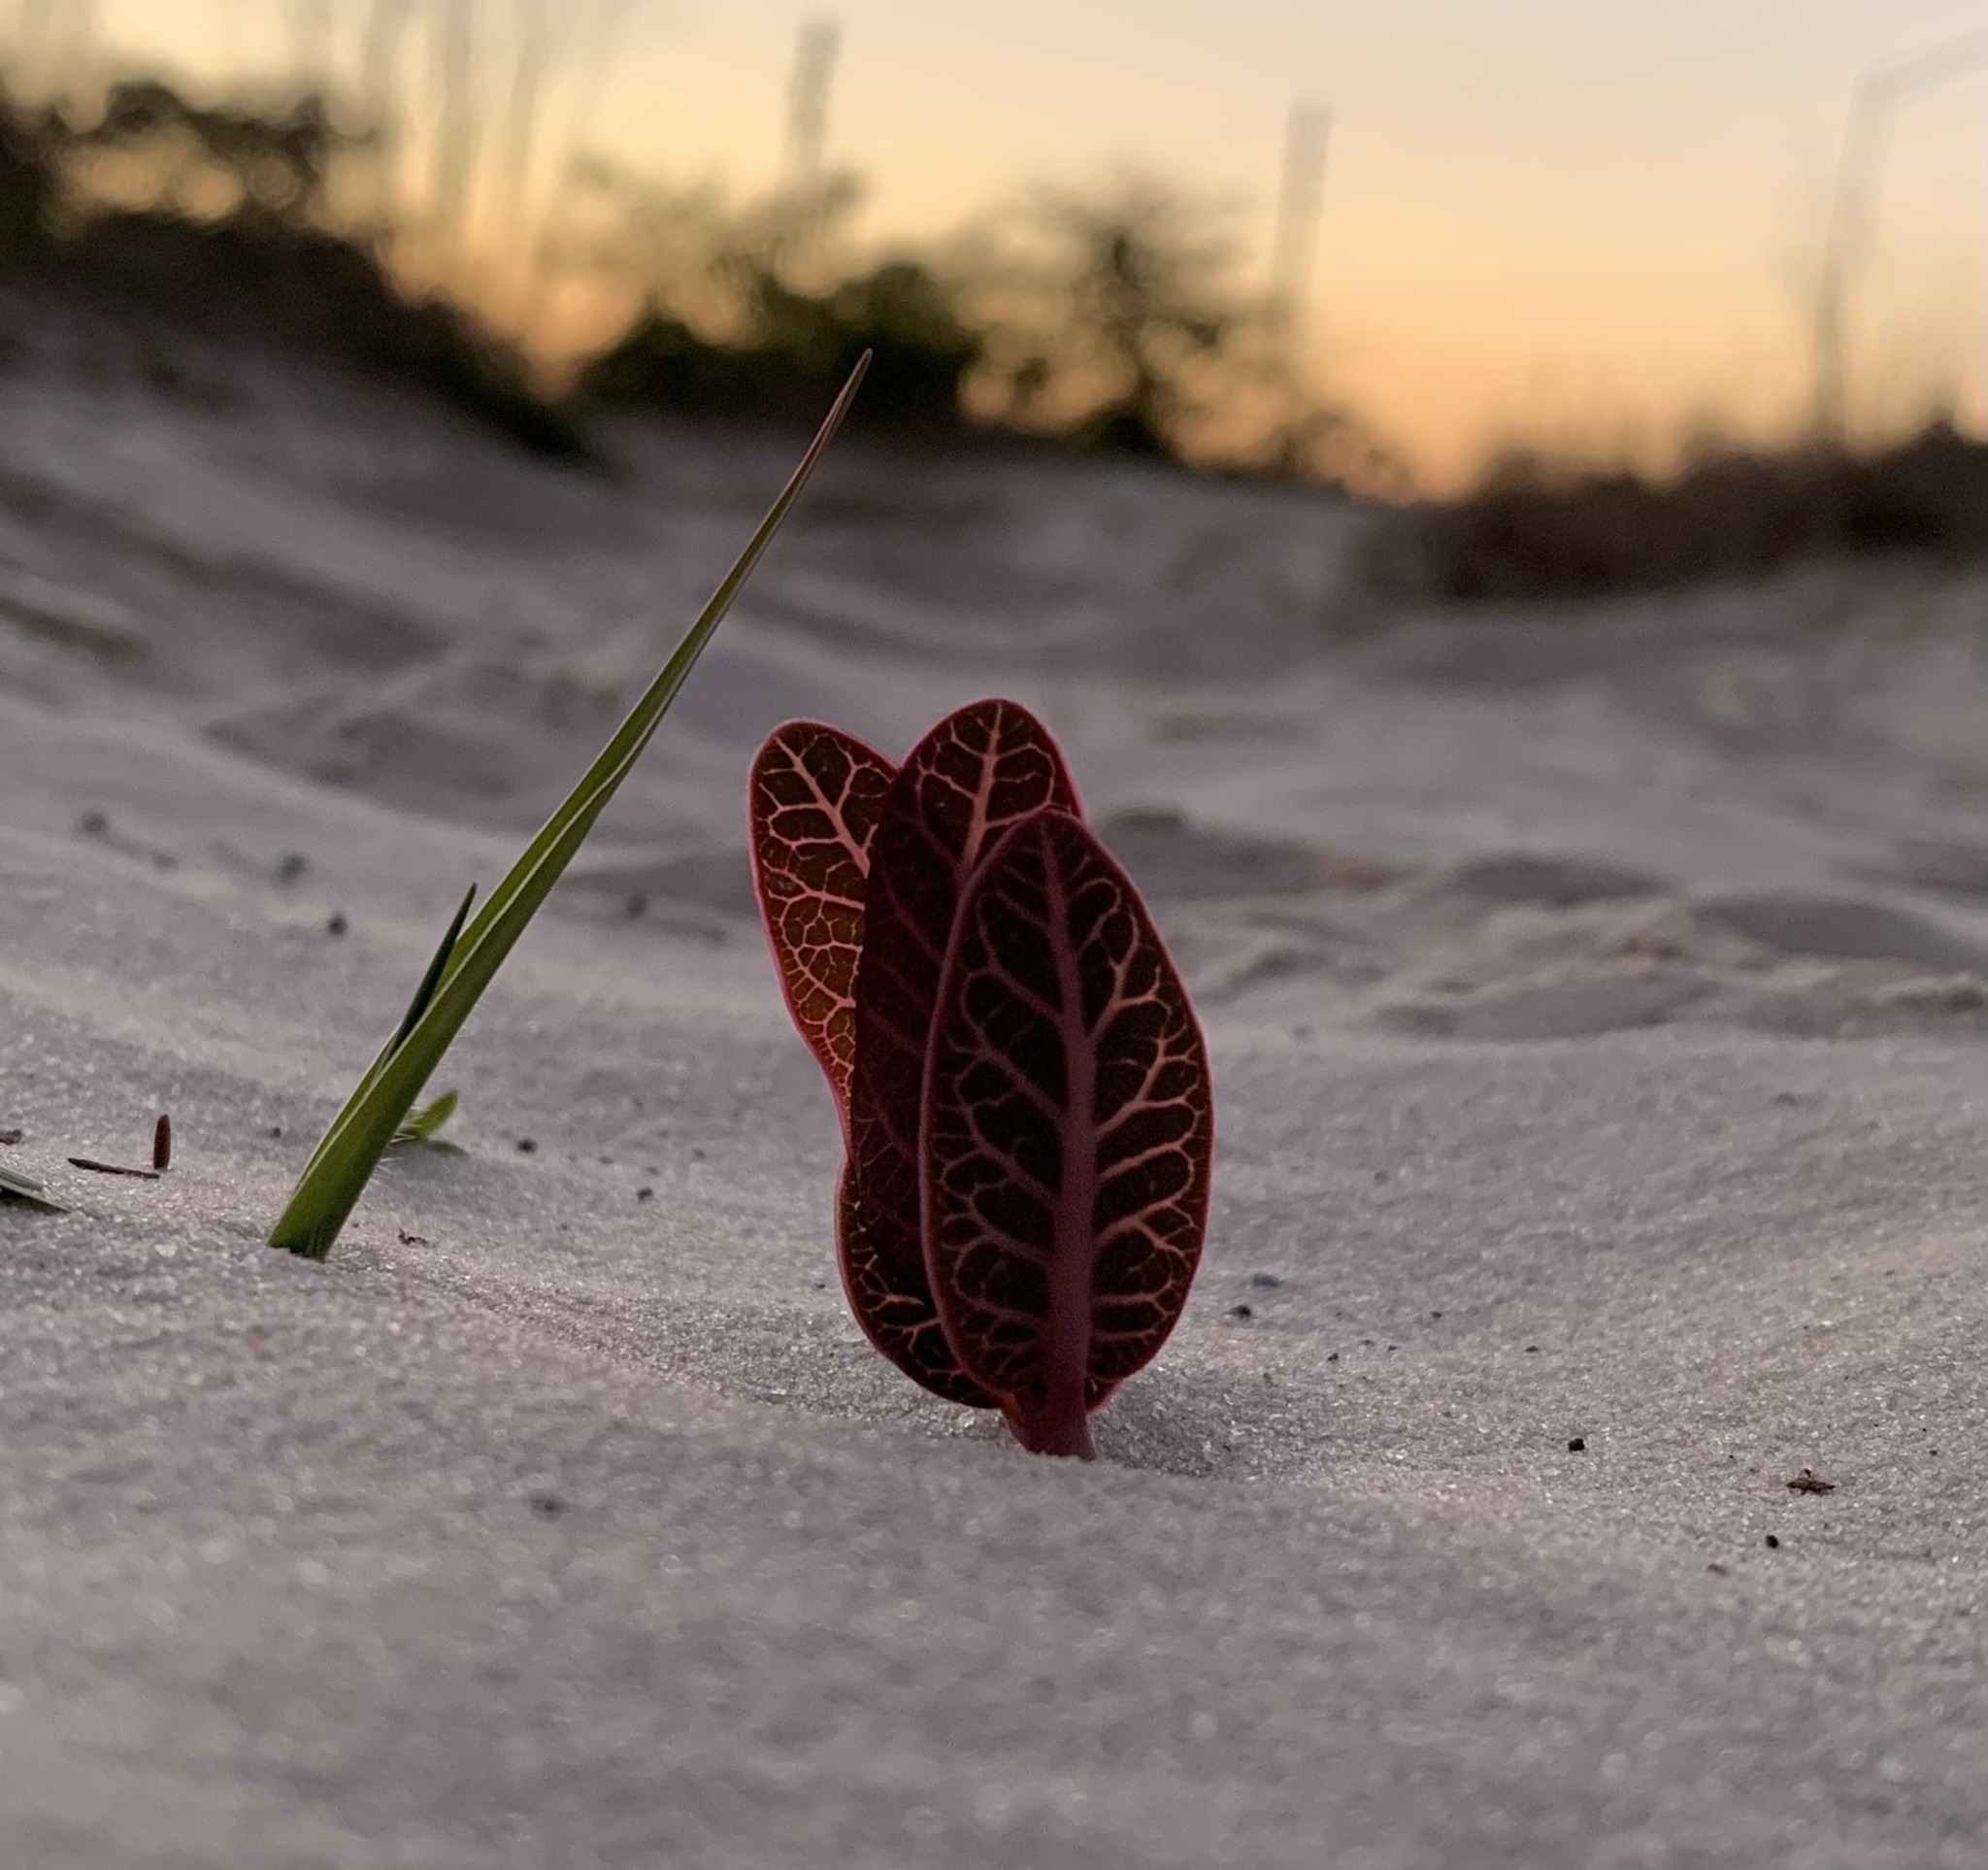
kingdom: Plantae
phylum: Tracheophyta
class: Magnoliopsida
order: Gentianales
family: Apocynaceae
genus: Asclepias
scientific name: Asclepias humistrata
